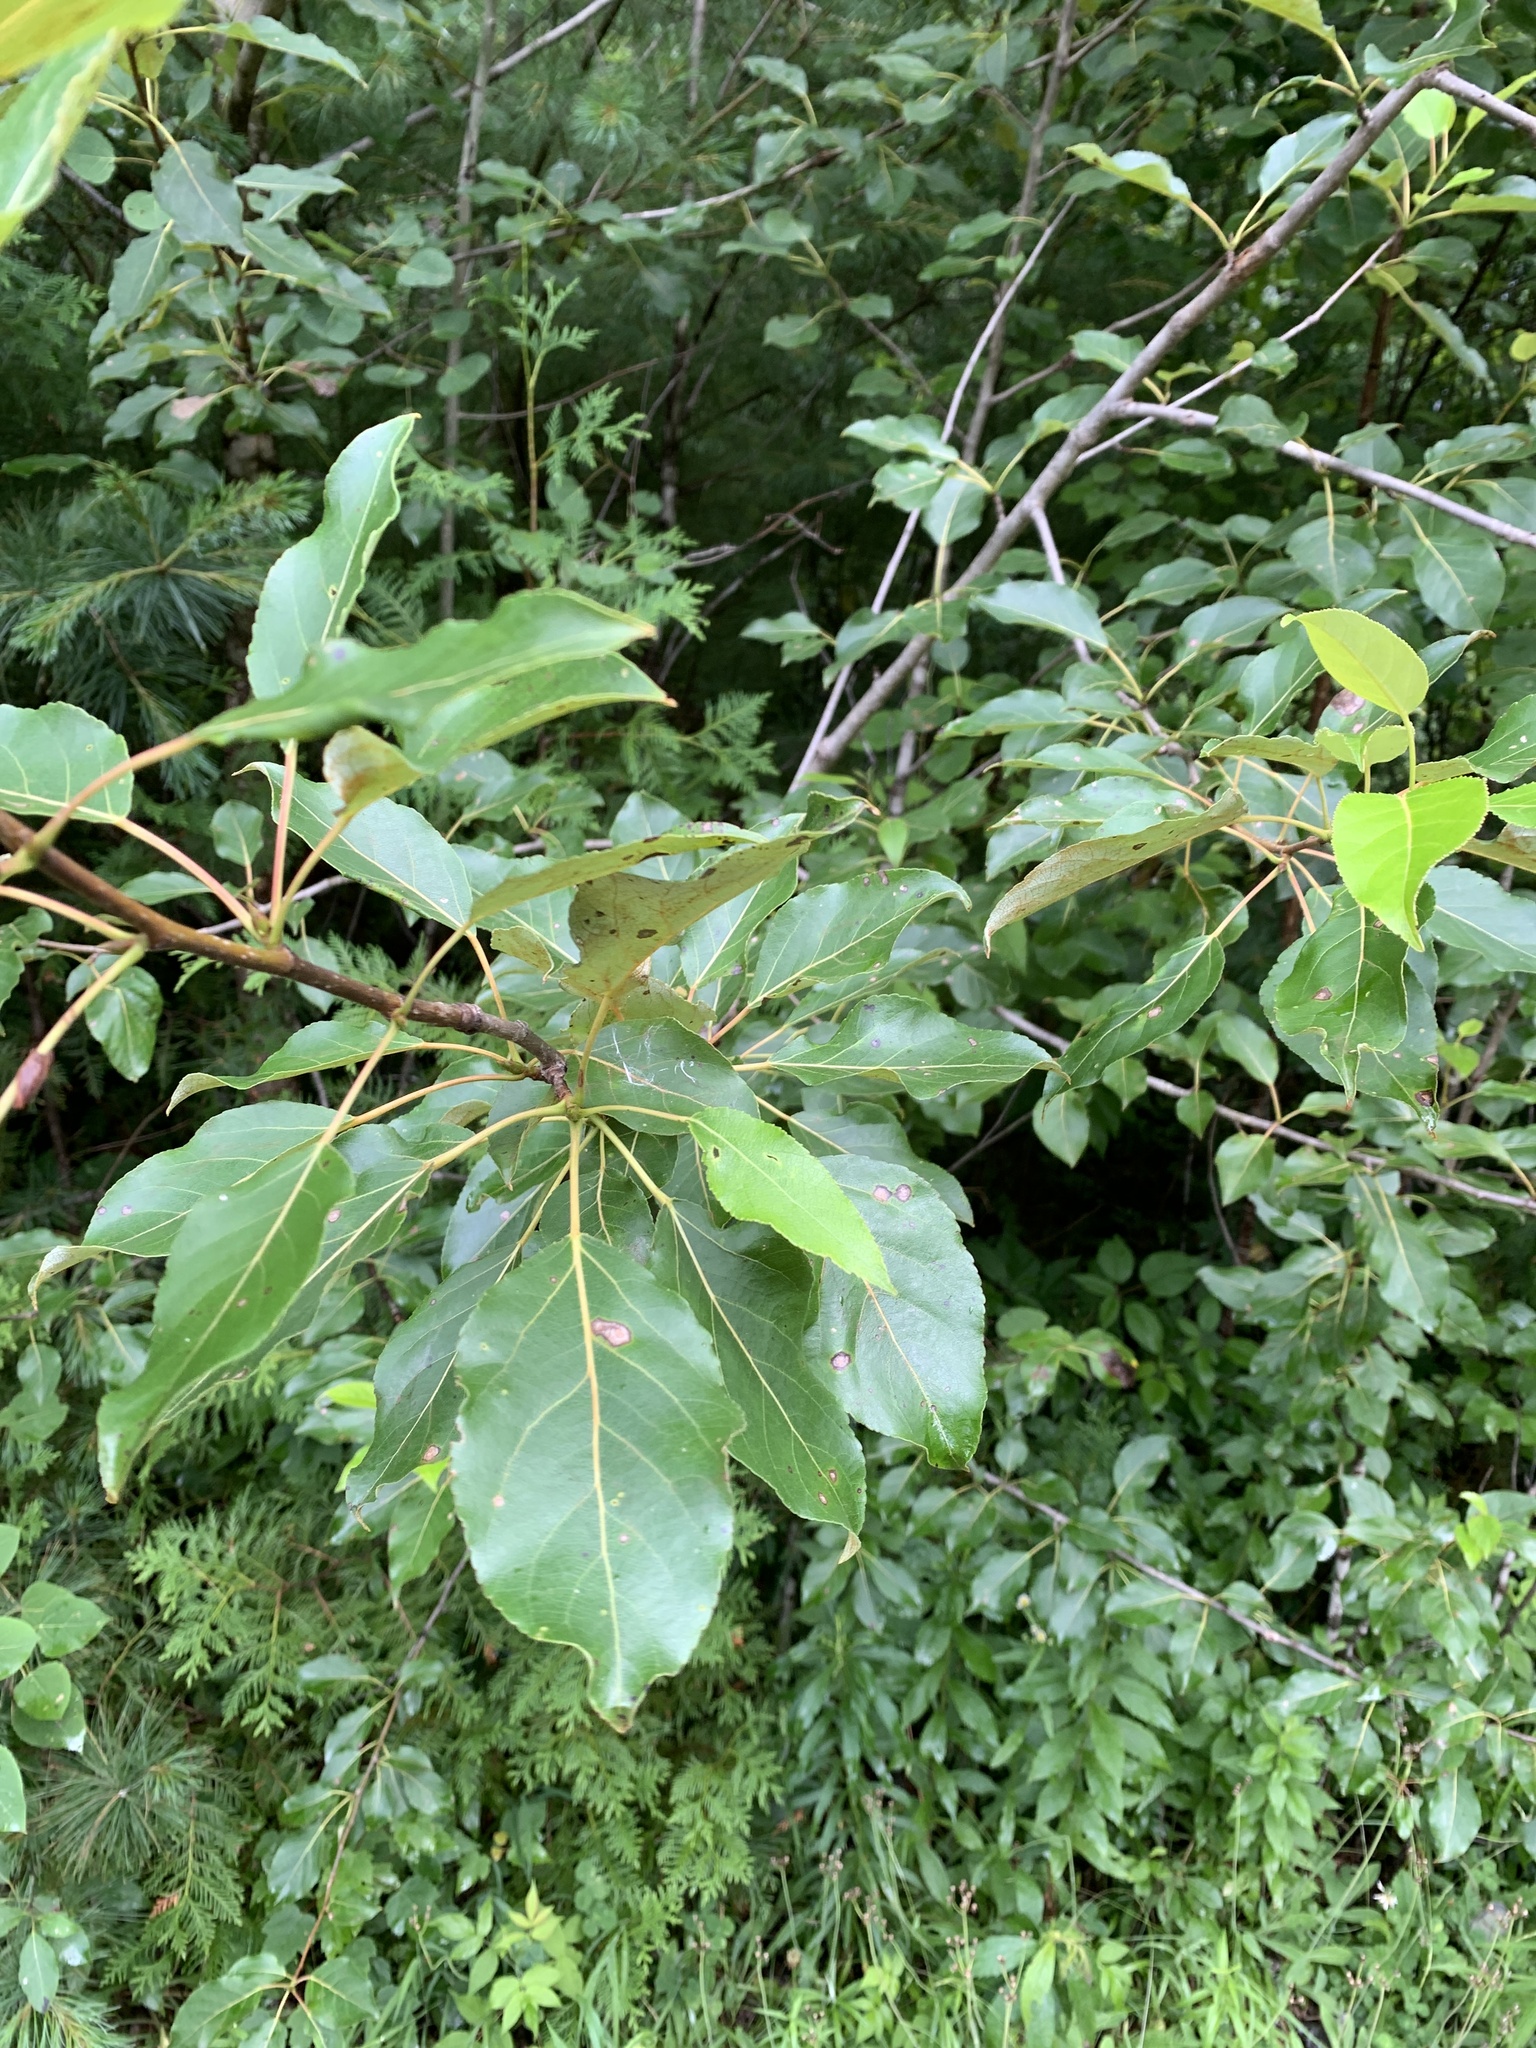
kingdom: Plantae
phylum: Tracheophyta
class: Magnoliopsida
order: Malpighiales
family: Salicaceae
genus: Populus
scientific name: Populus balsamifera
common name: Balsam poplar
